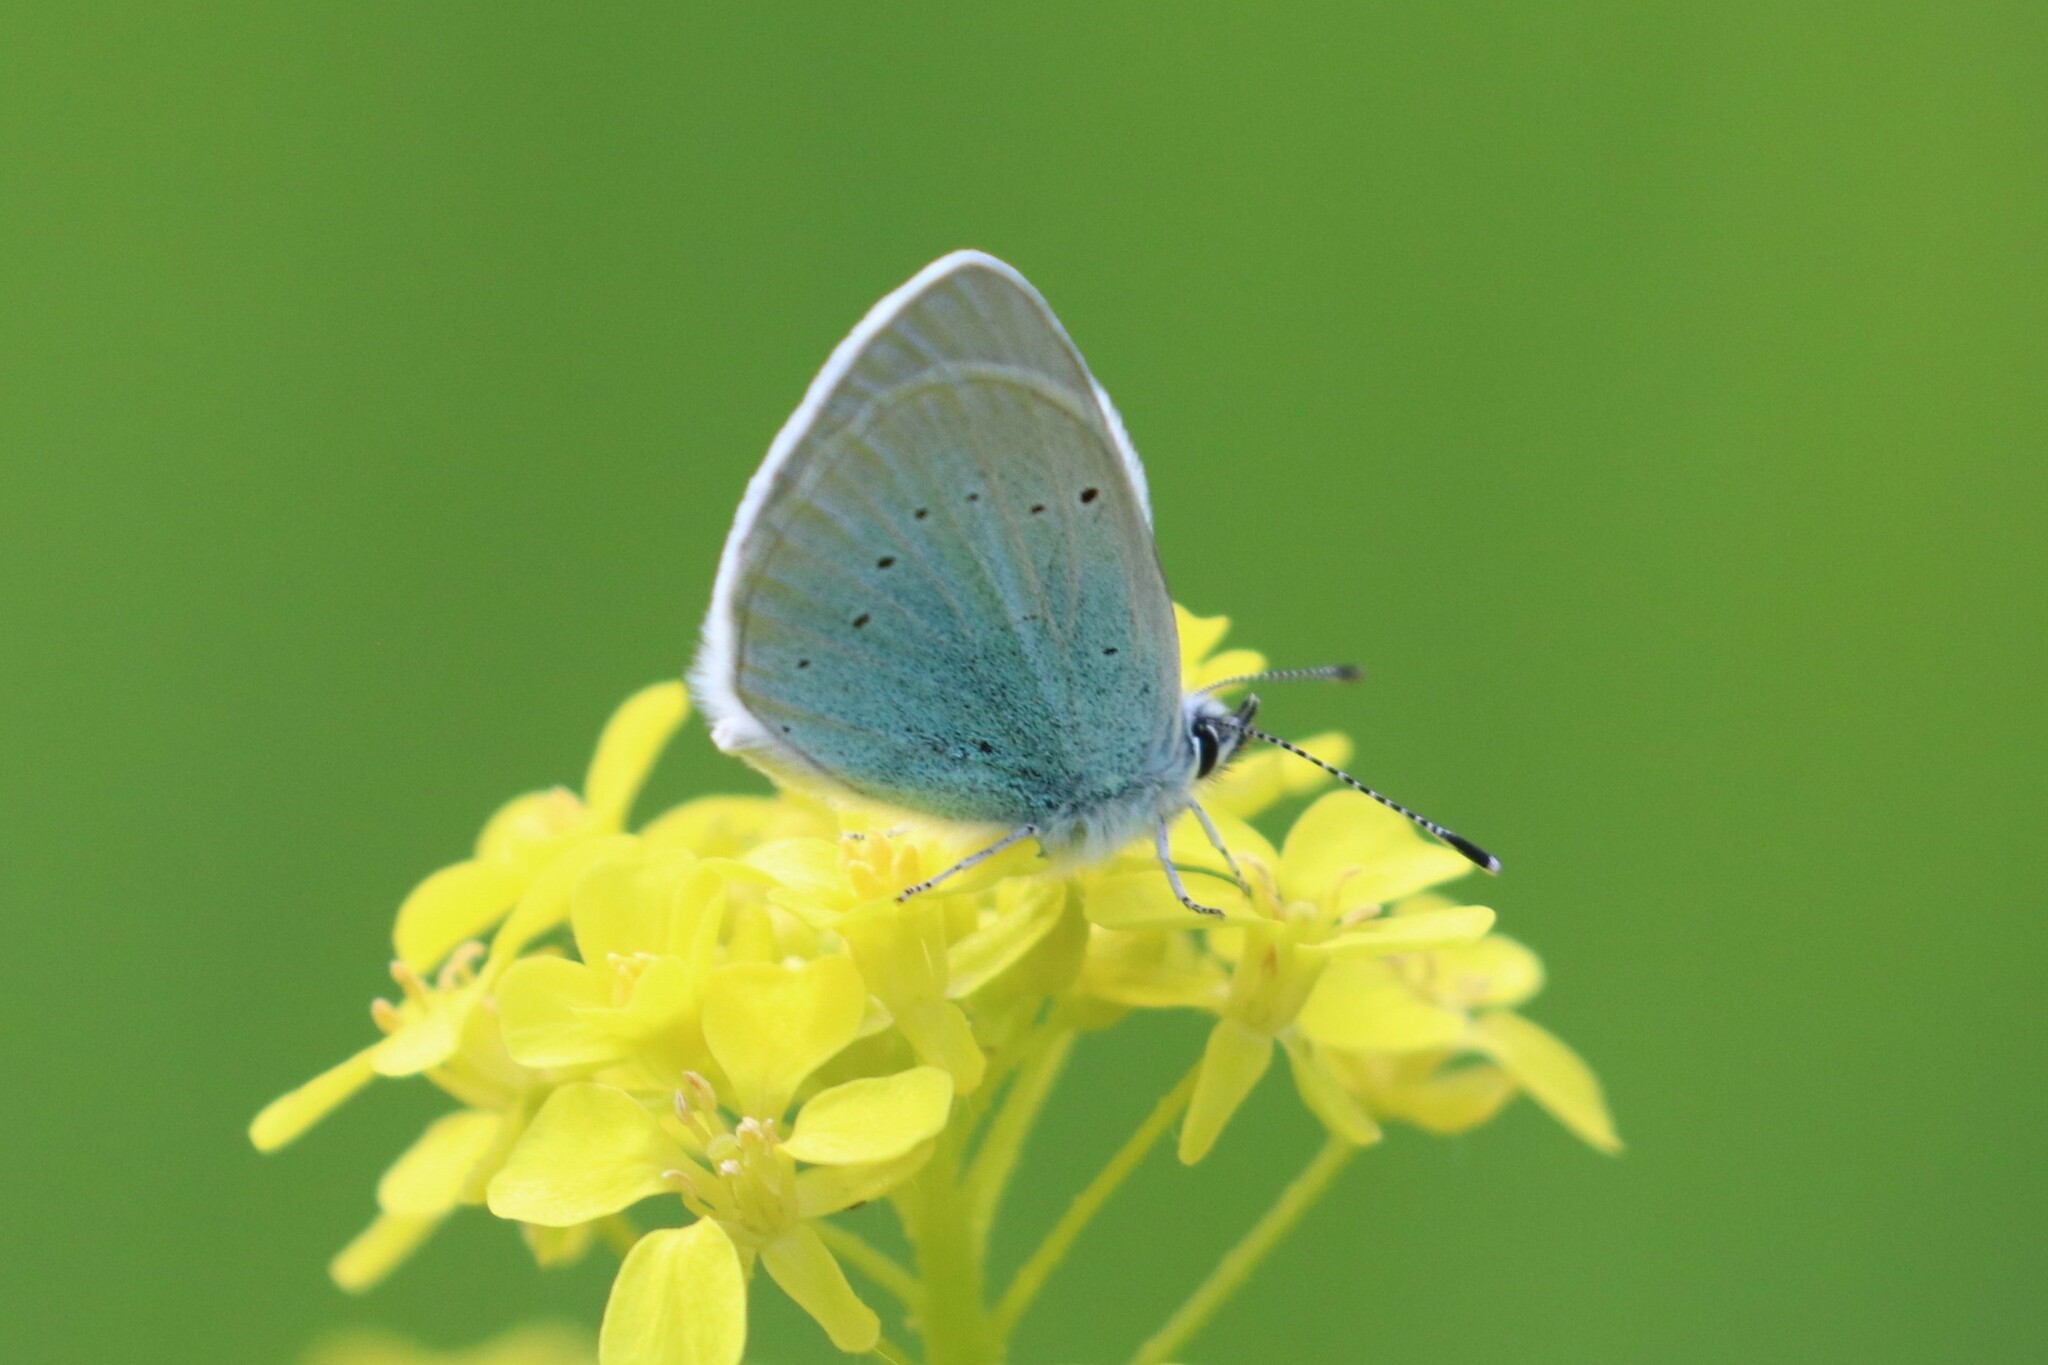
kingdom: Animalia
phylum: Arthropoda
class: Insecta
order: Lepidoptera
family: Lycaenidae
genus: Glaucopsyche
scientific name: Glaucopsyche alexis
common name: Green-underside blue
